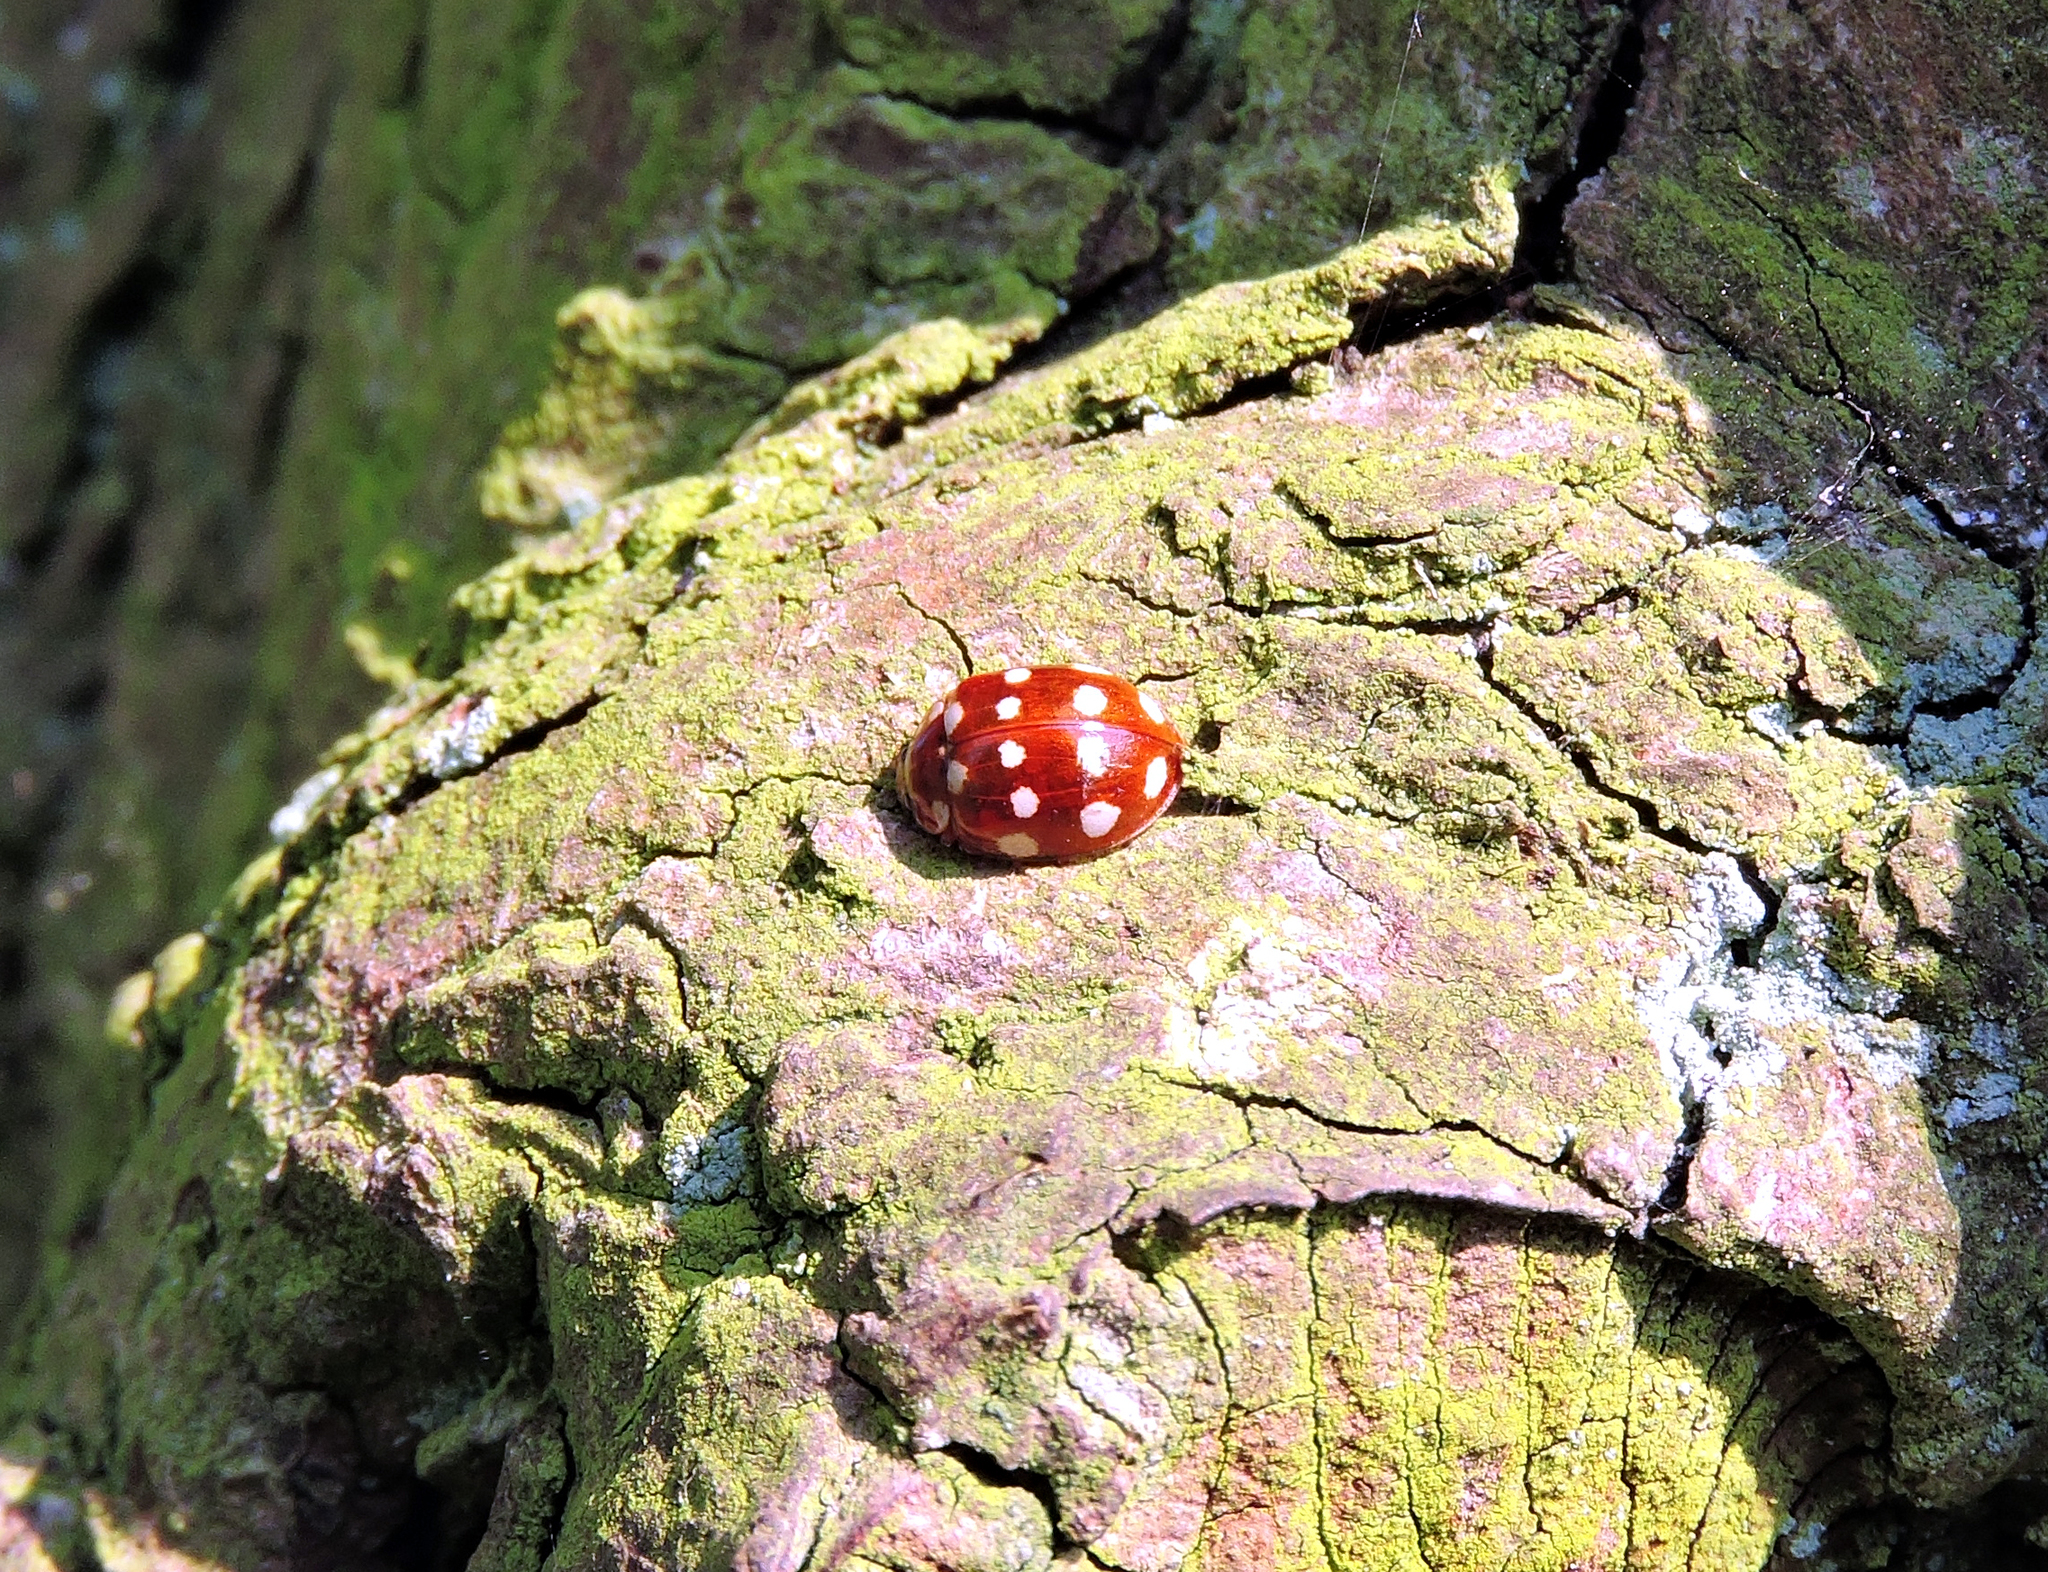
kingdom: Animalia
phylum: Arthropoda
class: Insecta
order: Coleoptera
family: Coccinellidae
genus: Calvia
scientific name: Calvia quatuordecimguttata
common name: Cream-spot ladybird
